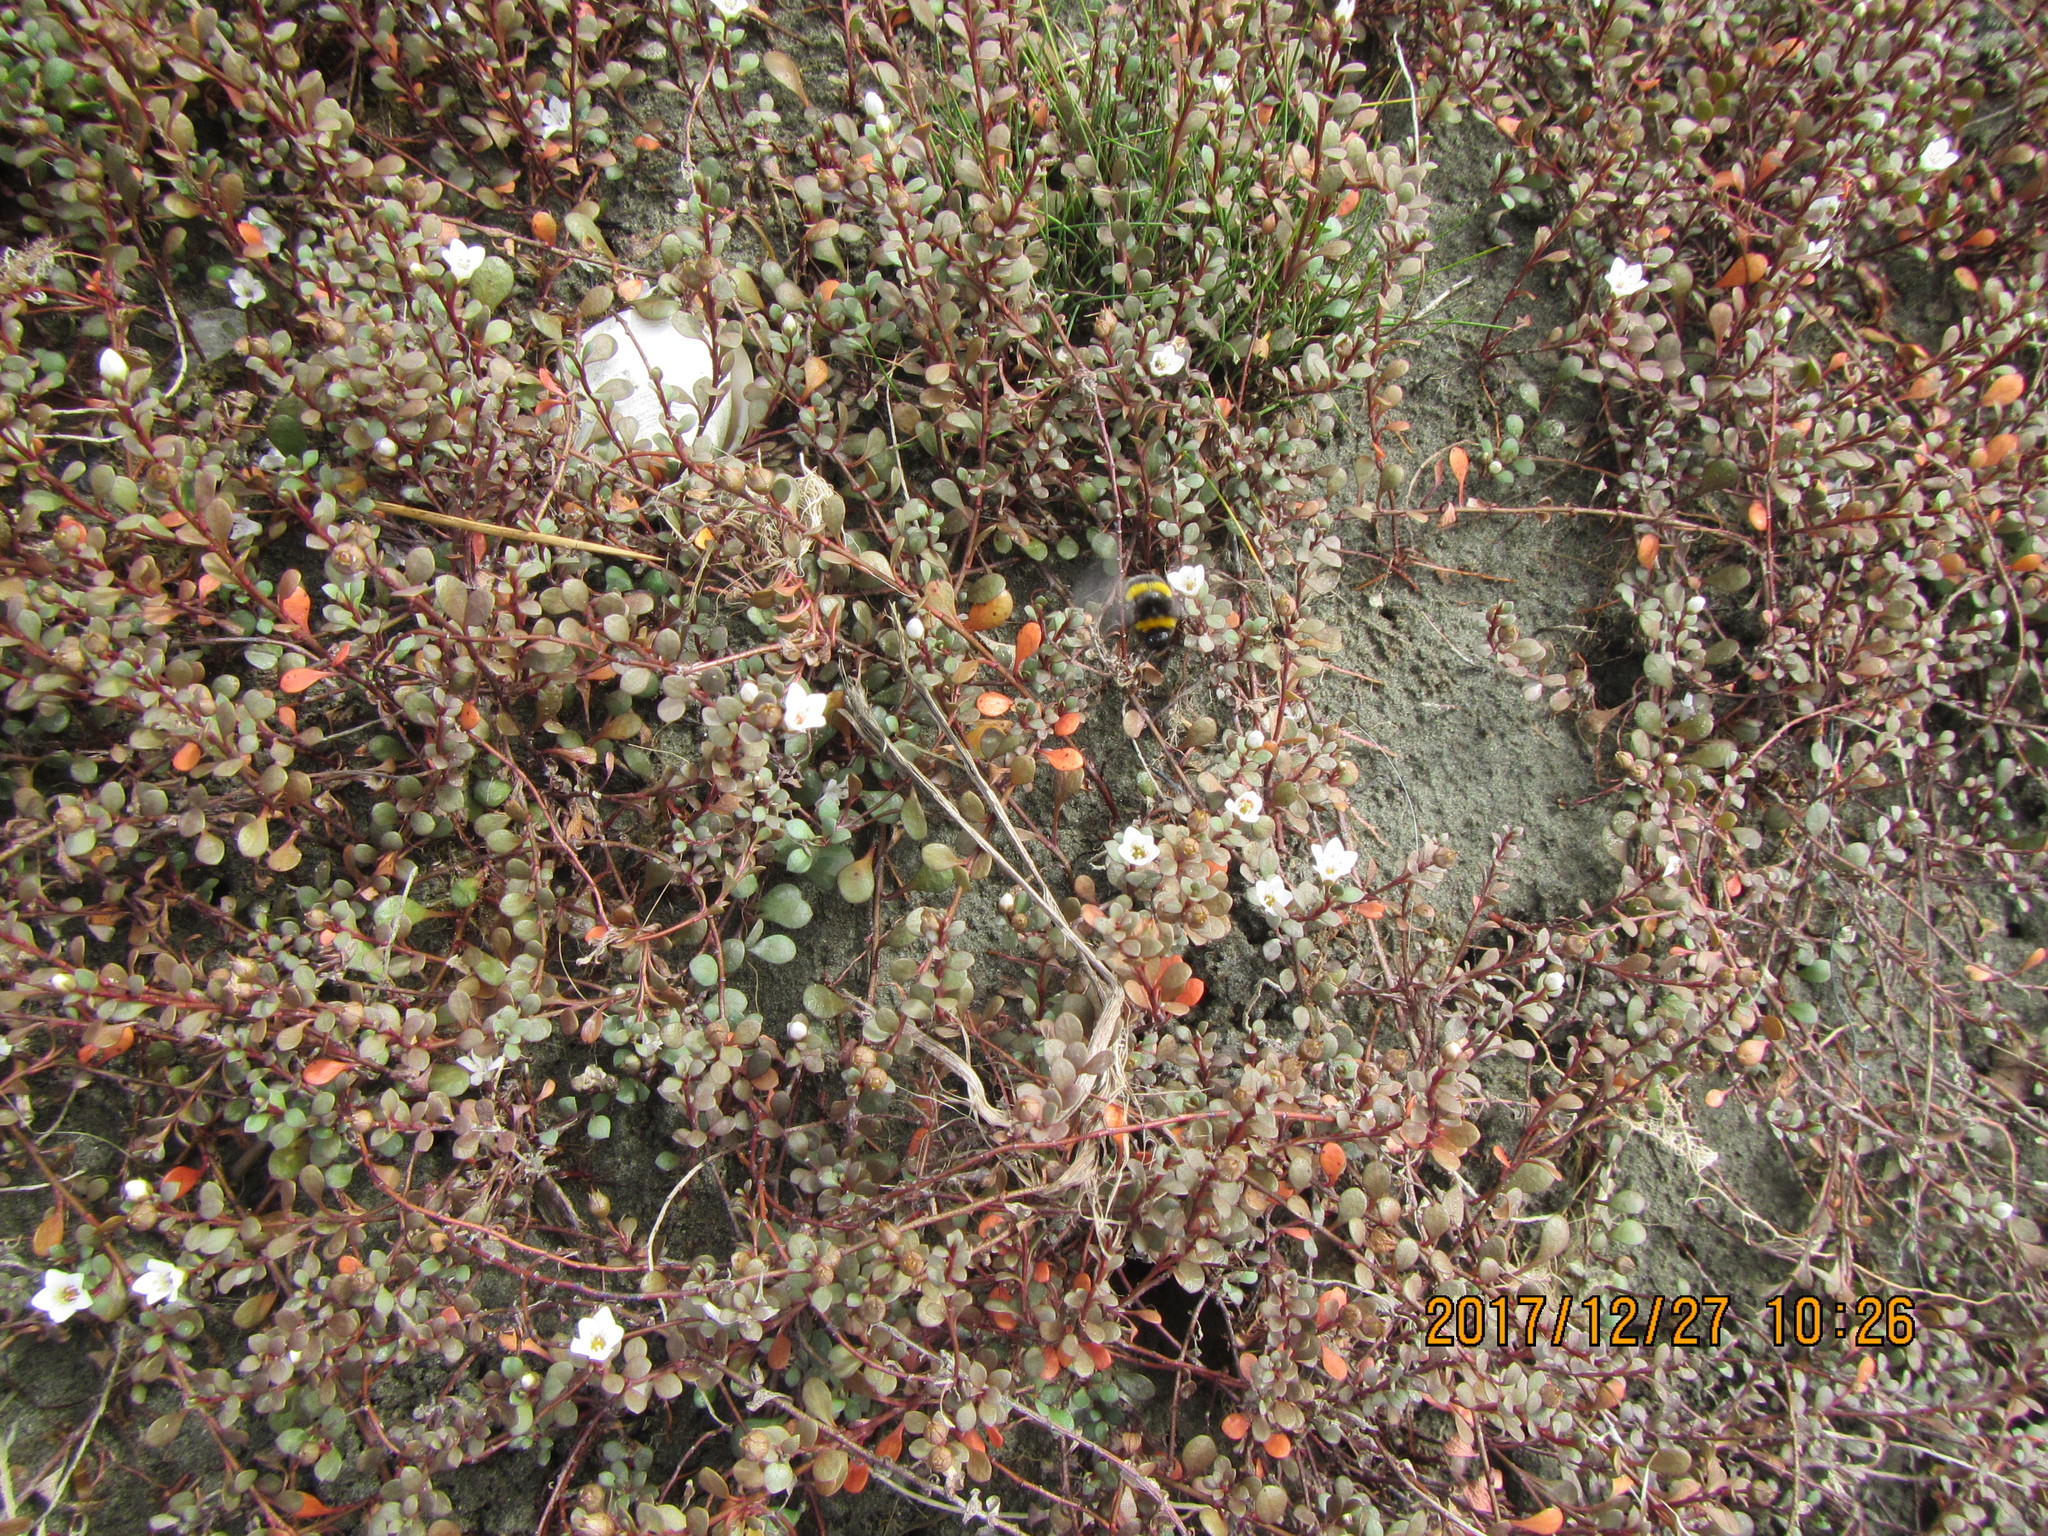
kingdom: Plantae
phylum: Tracheophyta
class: Magnoliopsida
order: Ericales
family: Primulaceae
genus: Samolus
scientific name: Samolus repens
